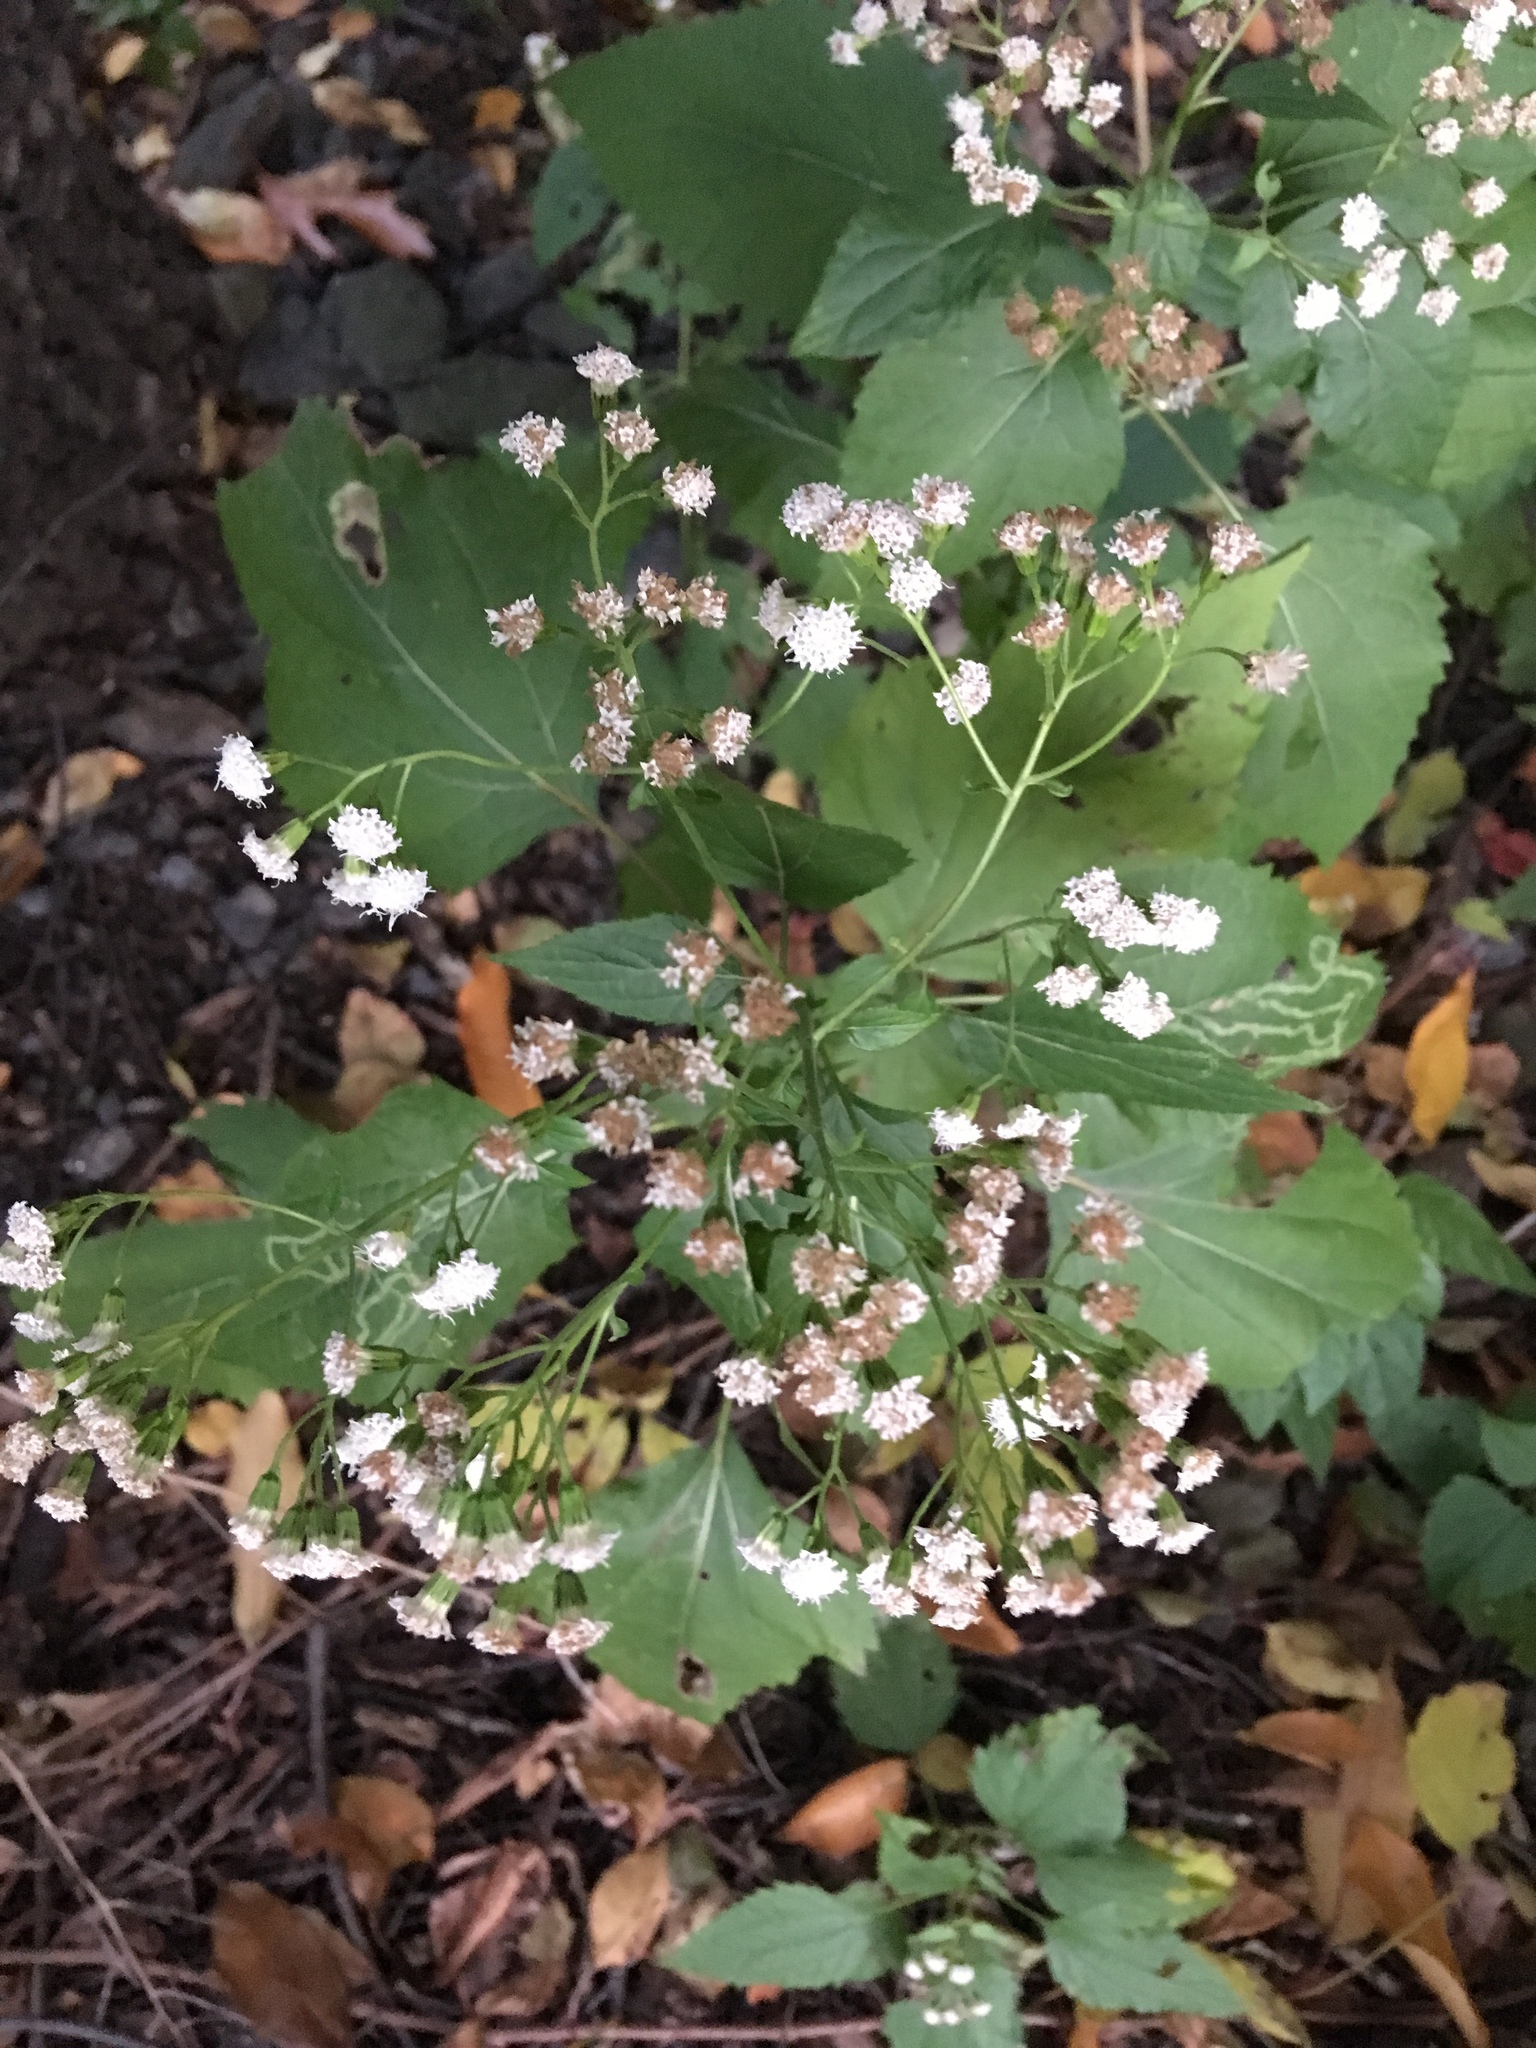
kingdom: Plantae
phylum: Tracheophyta
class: Magnoliopsida
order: Asterales
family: Asteraceae
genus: Ageratina
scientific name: Ageratina altissima
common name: White snakeroot
